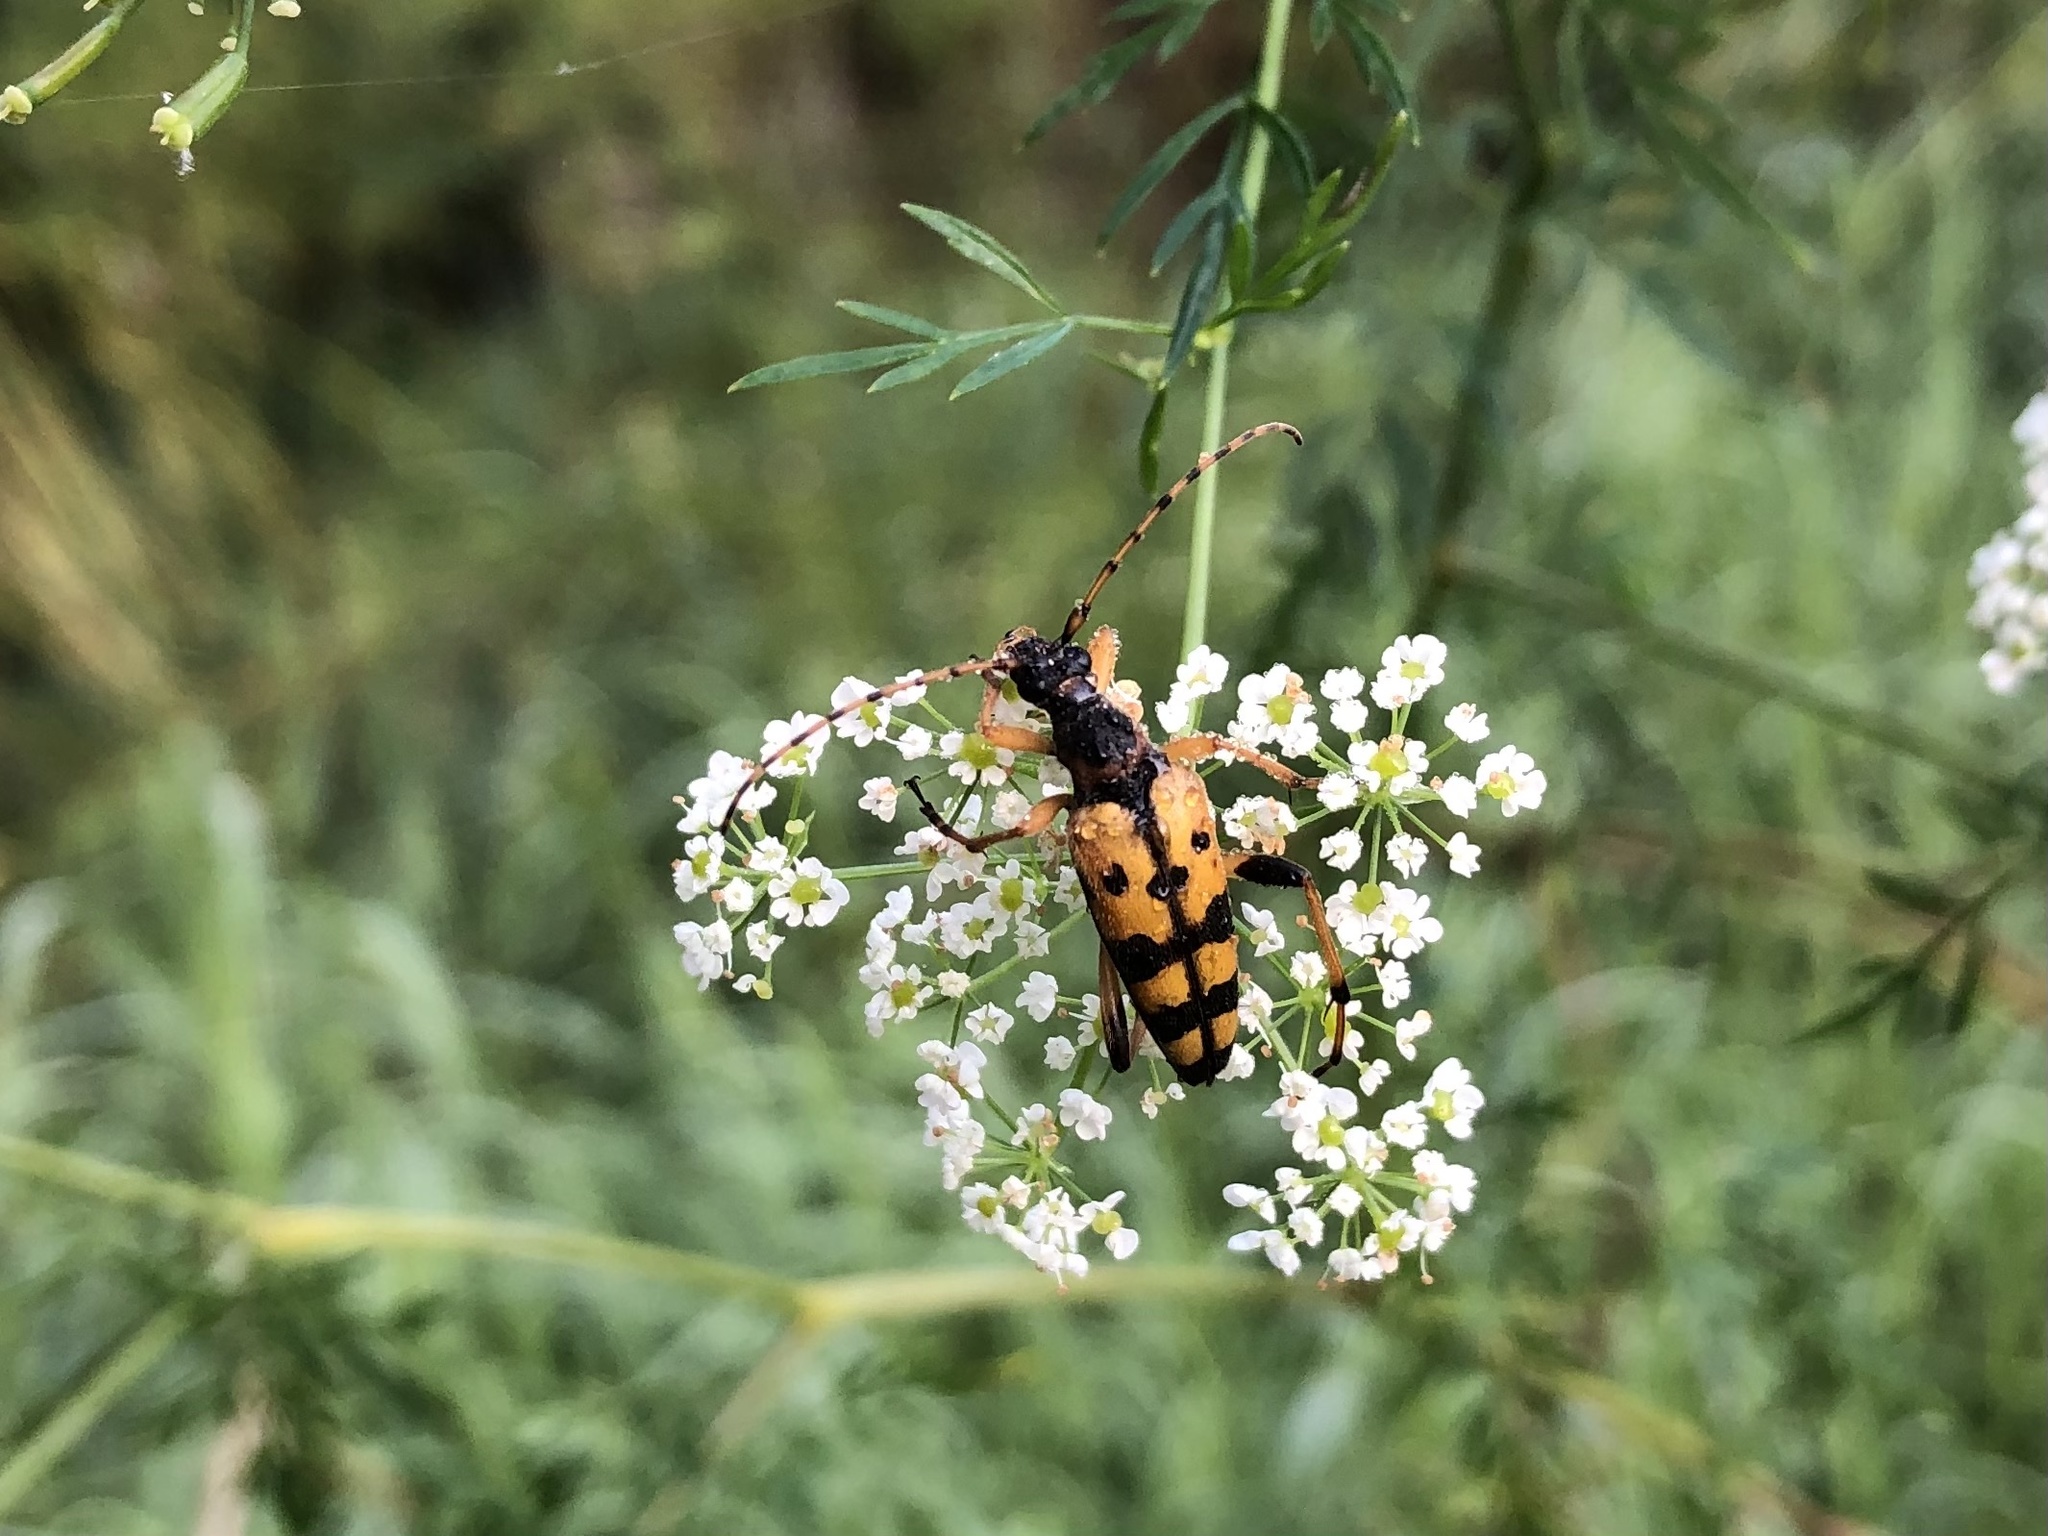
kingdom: Animalia
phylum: Arthropoda
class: Insecta
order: Coleoptera
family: Cerambycidae
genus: Rutpela
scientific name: Rutpela maculata
